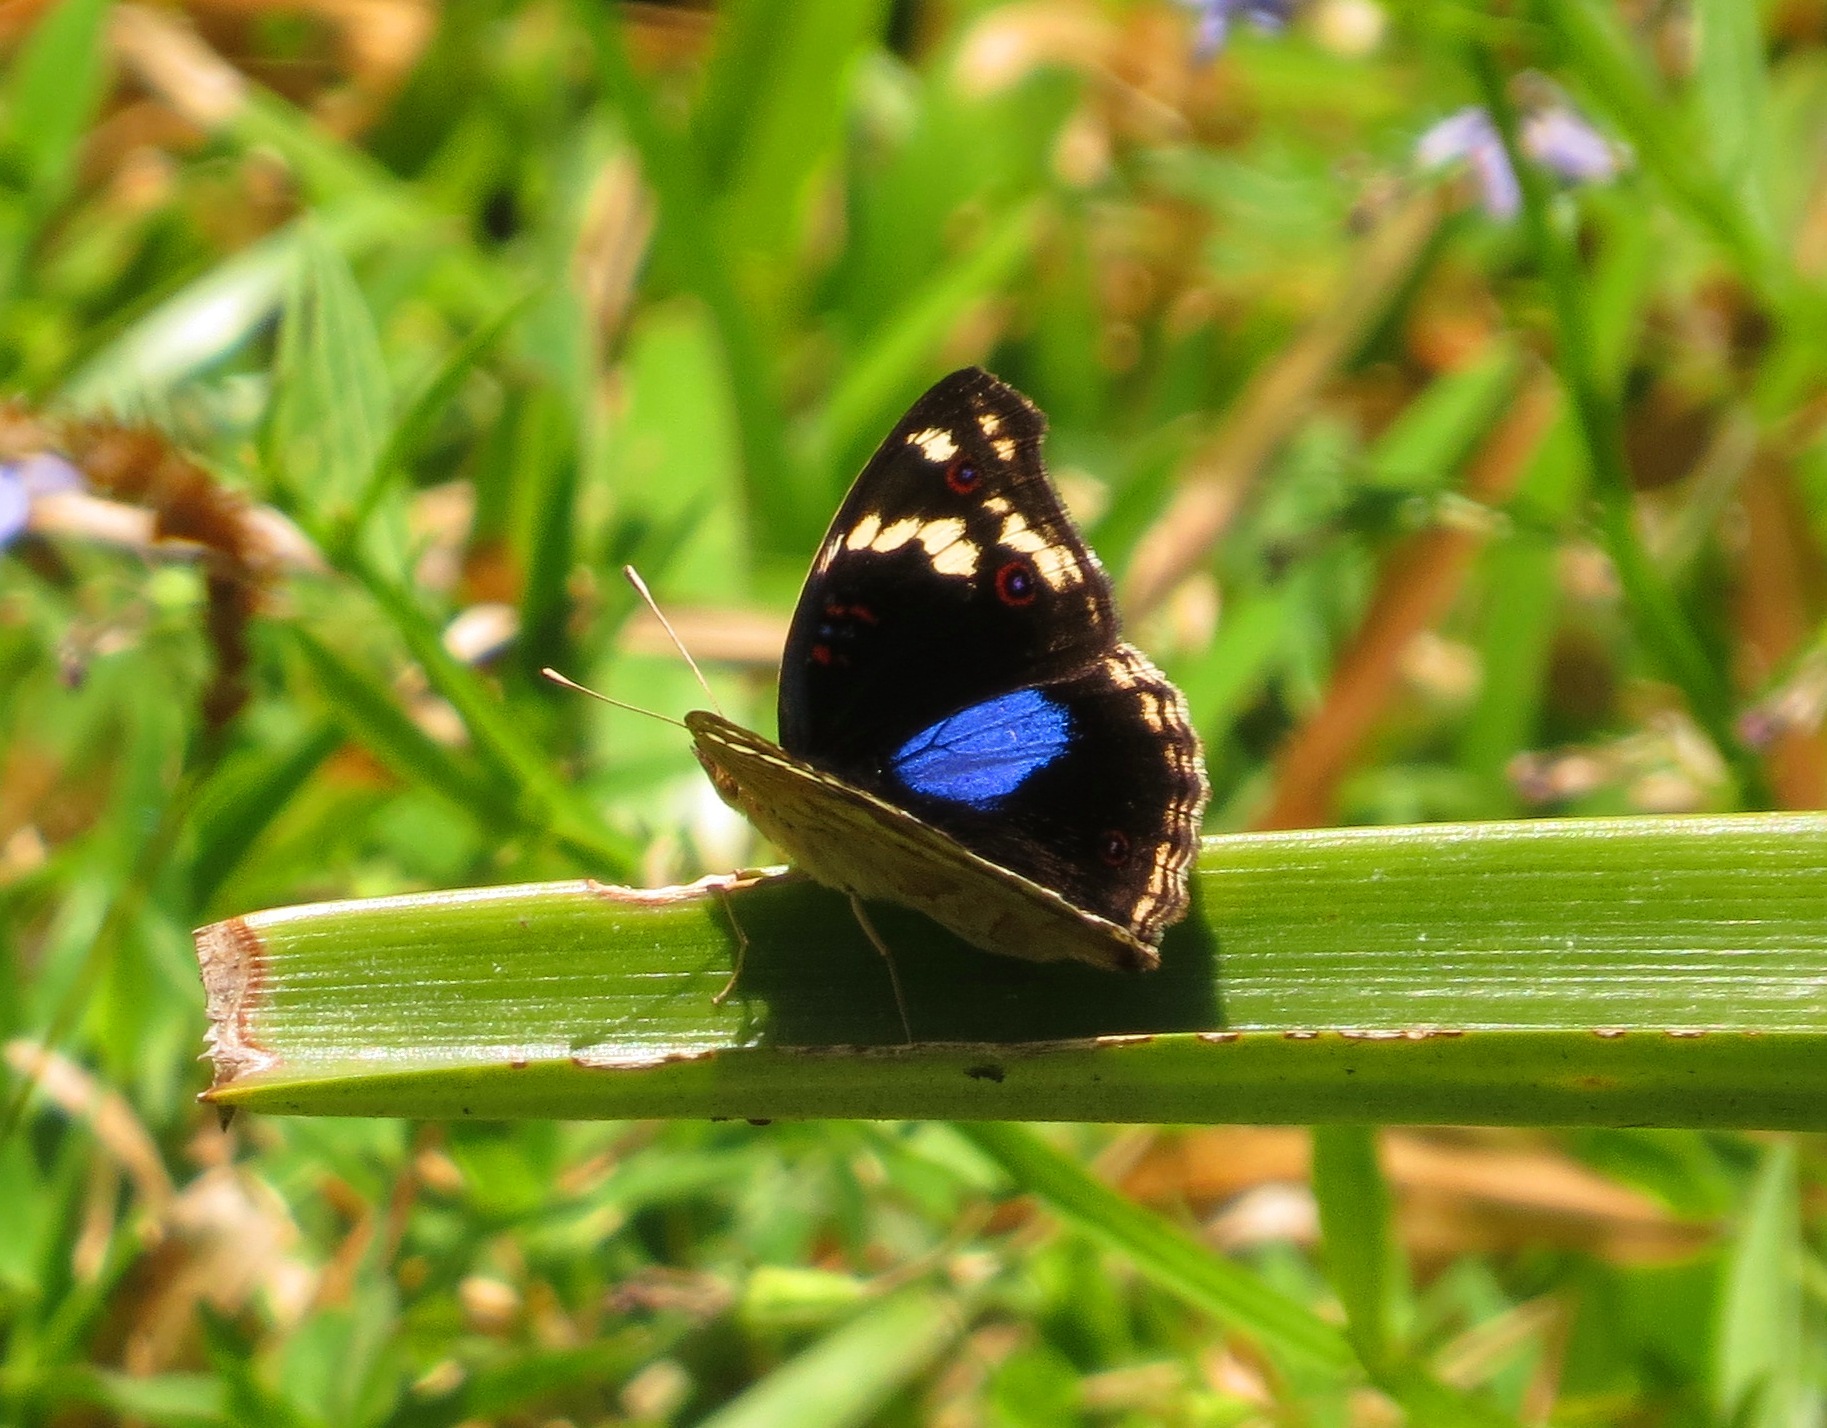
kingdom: Animalia
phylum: Arthropoda
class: Insecta
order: Lepidoptera
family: Nymphalidae
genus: Junonia
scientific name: Junonia oenone
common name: Dark blue pansy
